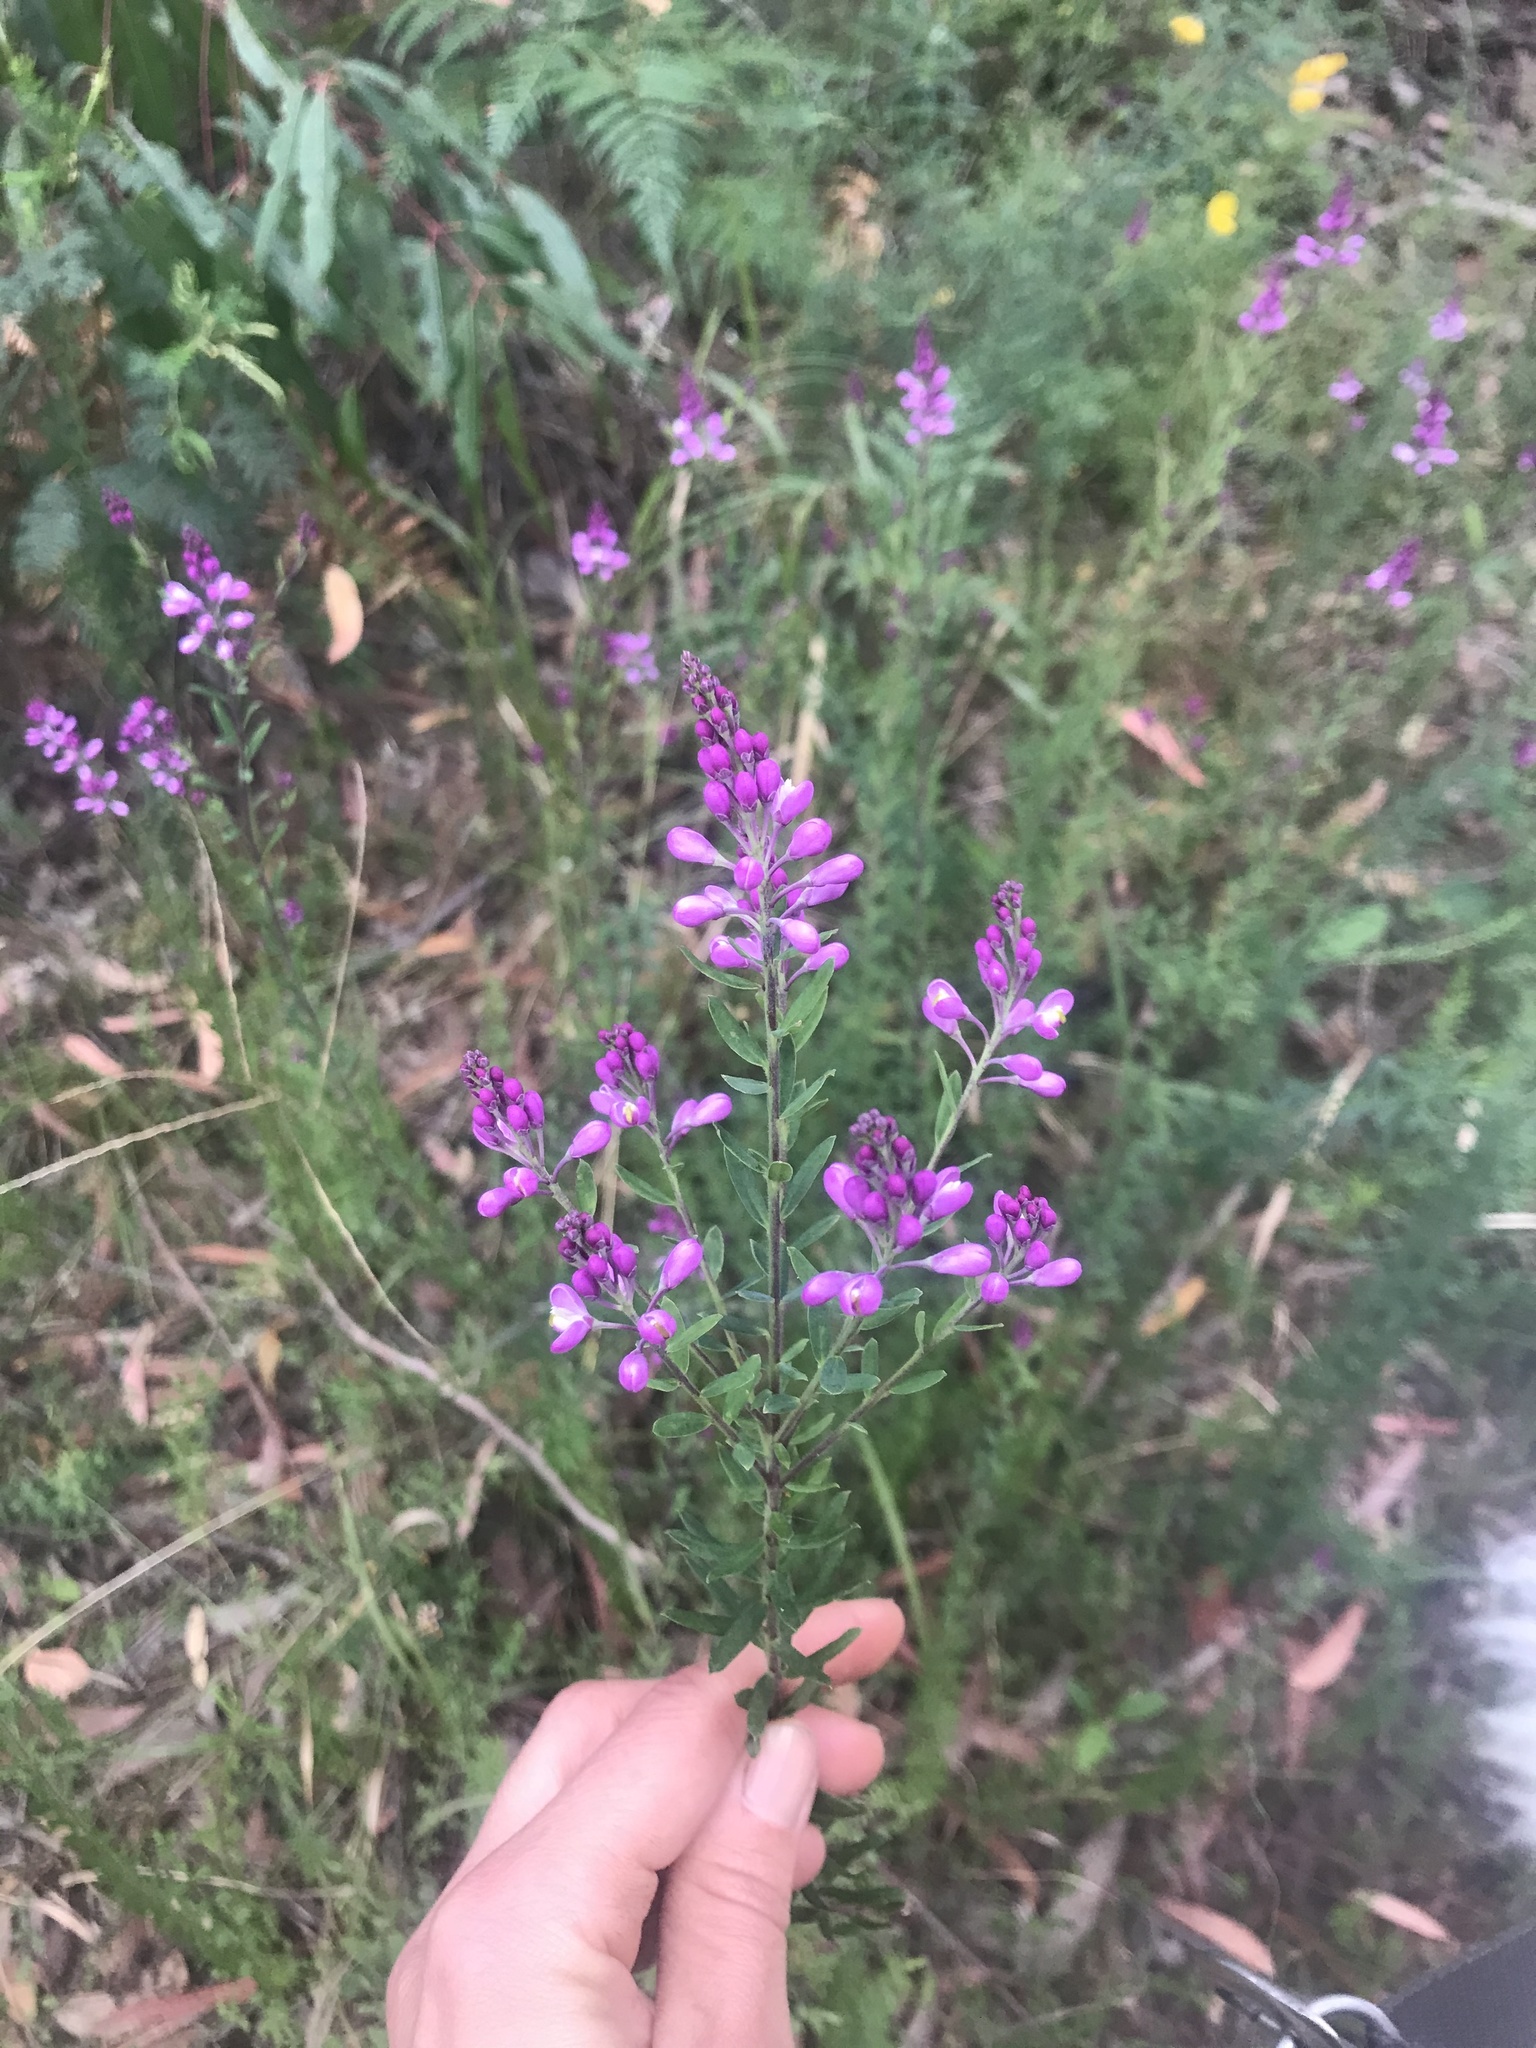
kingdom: Plantae
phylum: Tracheophyta
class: Magnoliopsida
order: Fabales
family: Polygalaceae
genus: Comesperma
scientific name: Comesperma ericinum
